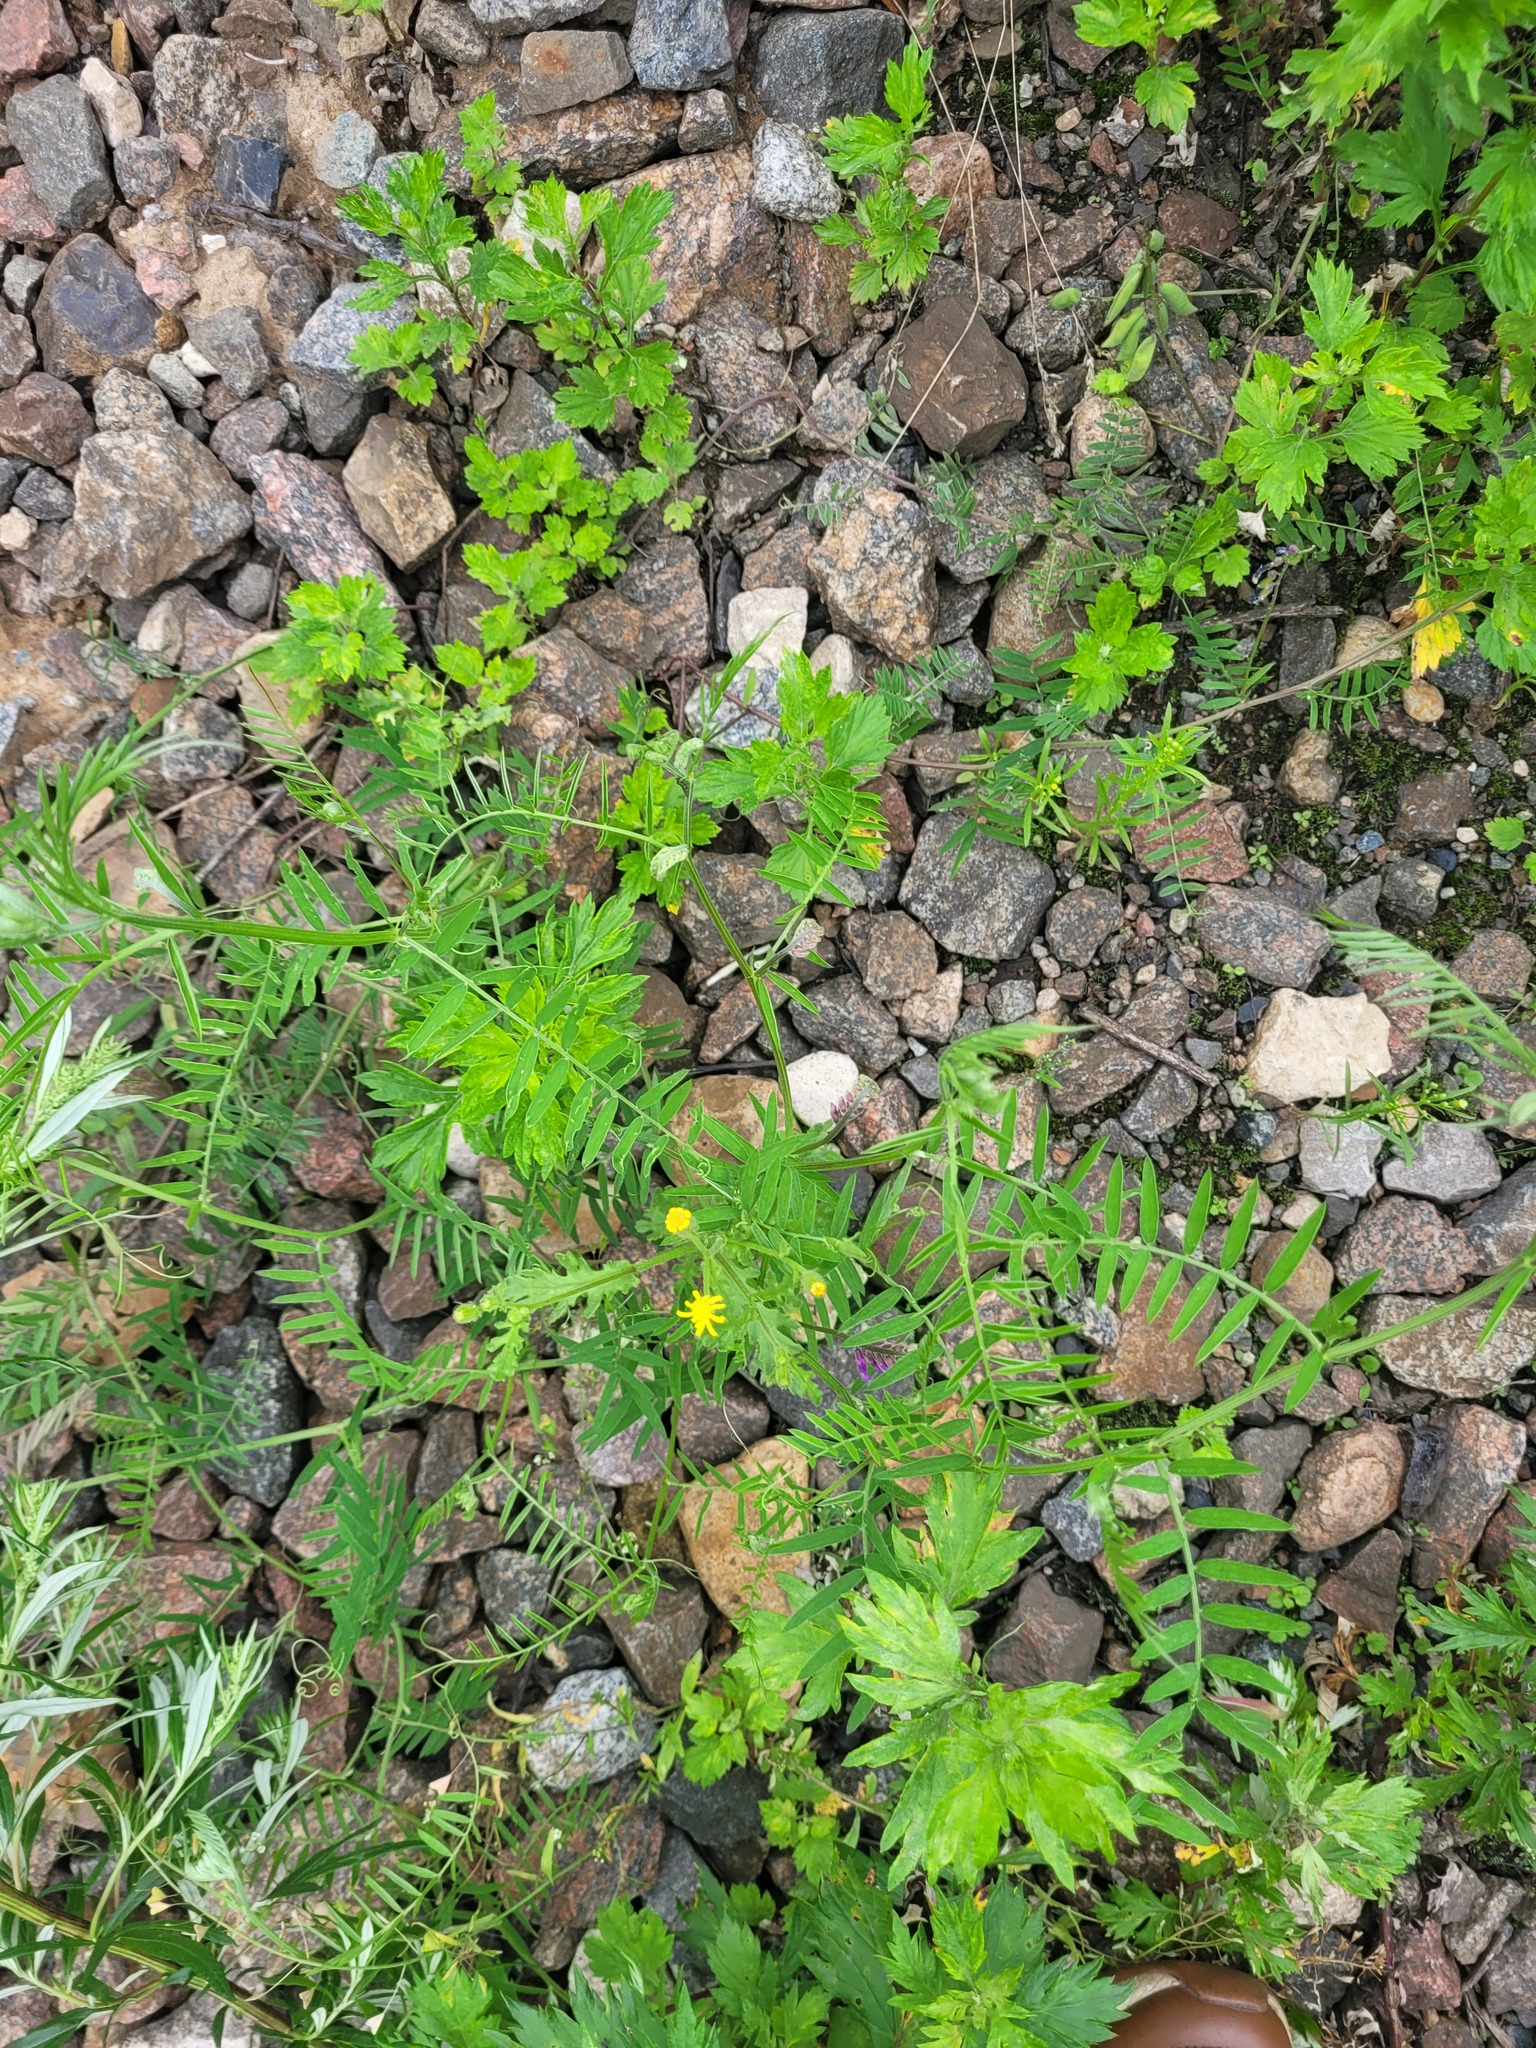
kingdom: Plantae
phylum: Tracheophyta
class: Magnoliopsida
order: Fabales
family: Fabaceae
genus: Vicia
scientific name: Vicia cracca
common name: Bird vetch
